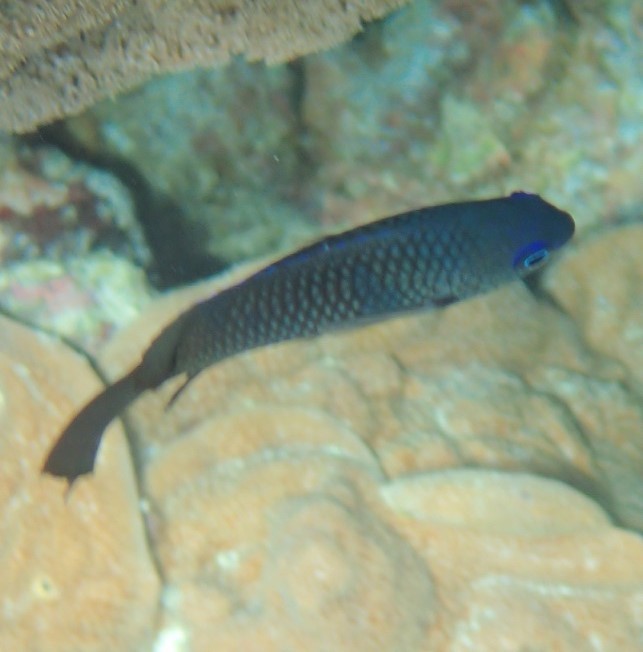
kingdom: Animalia
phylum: Chordata
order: Perciformes
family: Pomacentridae
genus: Pomacentrus
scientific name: Pomacentrus magniseptus
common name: Blackfin damselfish
